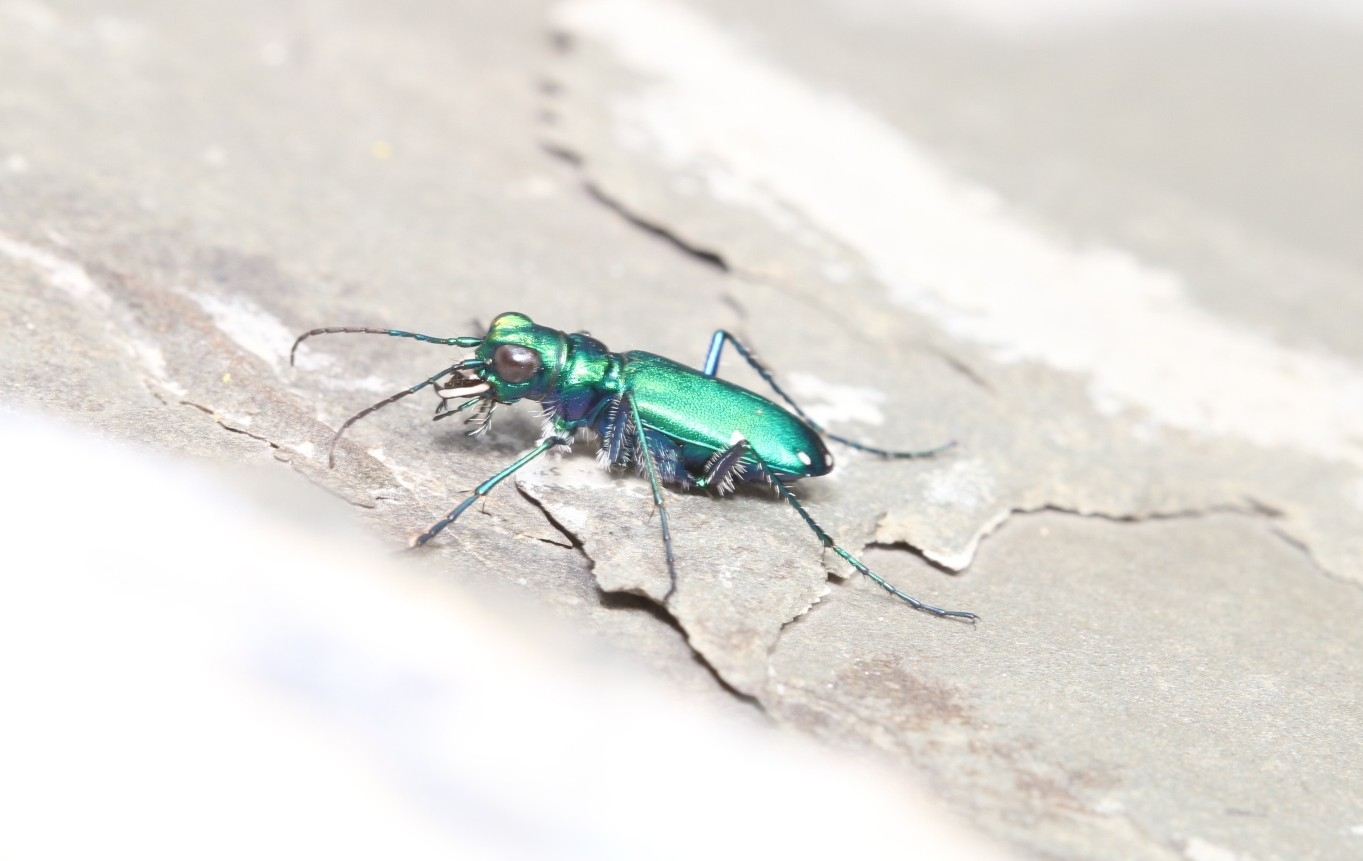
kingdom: Animalia
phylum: Arthropoda
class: Insecta
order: Coleoptera
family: Carabidae
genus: Cicindela
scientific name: Cicindela sexguttata
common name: Six-spotted tiger beetle
